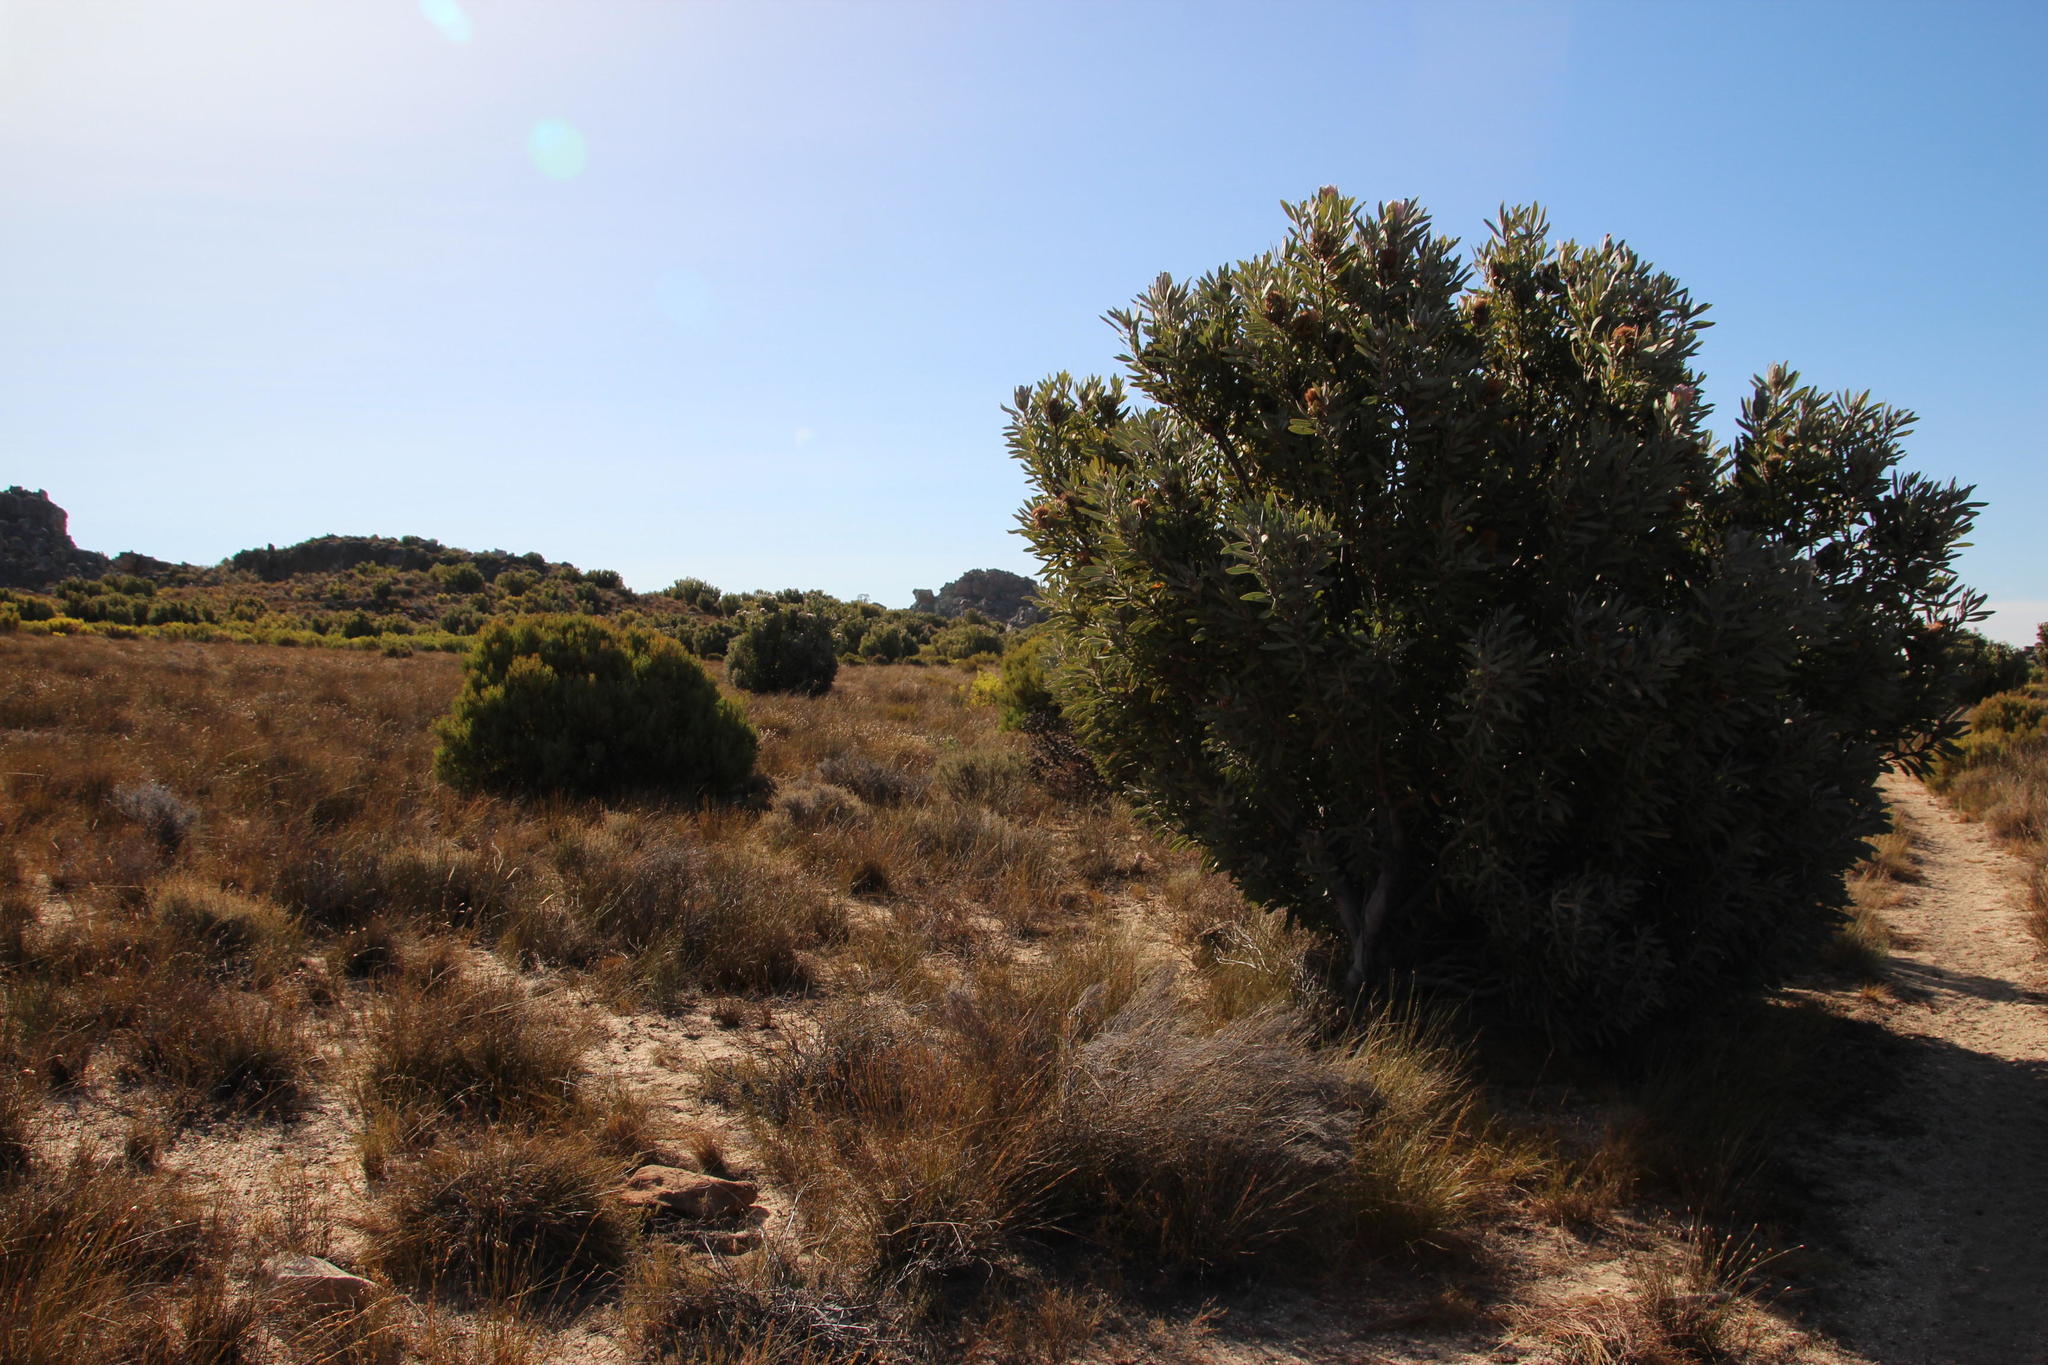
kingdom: Plantae
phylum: Tracheophyta
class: Magnoliopsida
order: Proteales
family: Proteaceae
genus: Protea
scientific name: Protea laurifolia
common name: Grey-leaf sugarbsh
